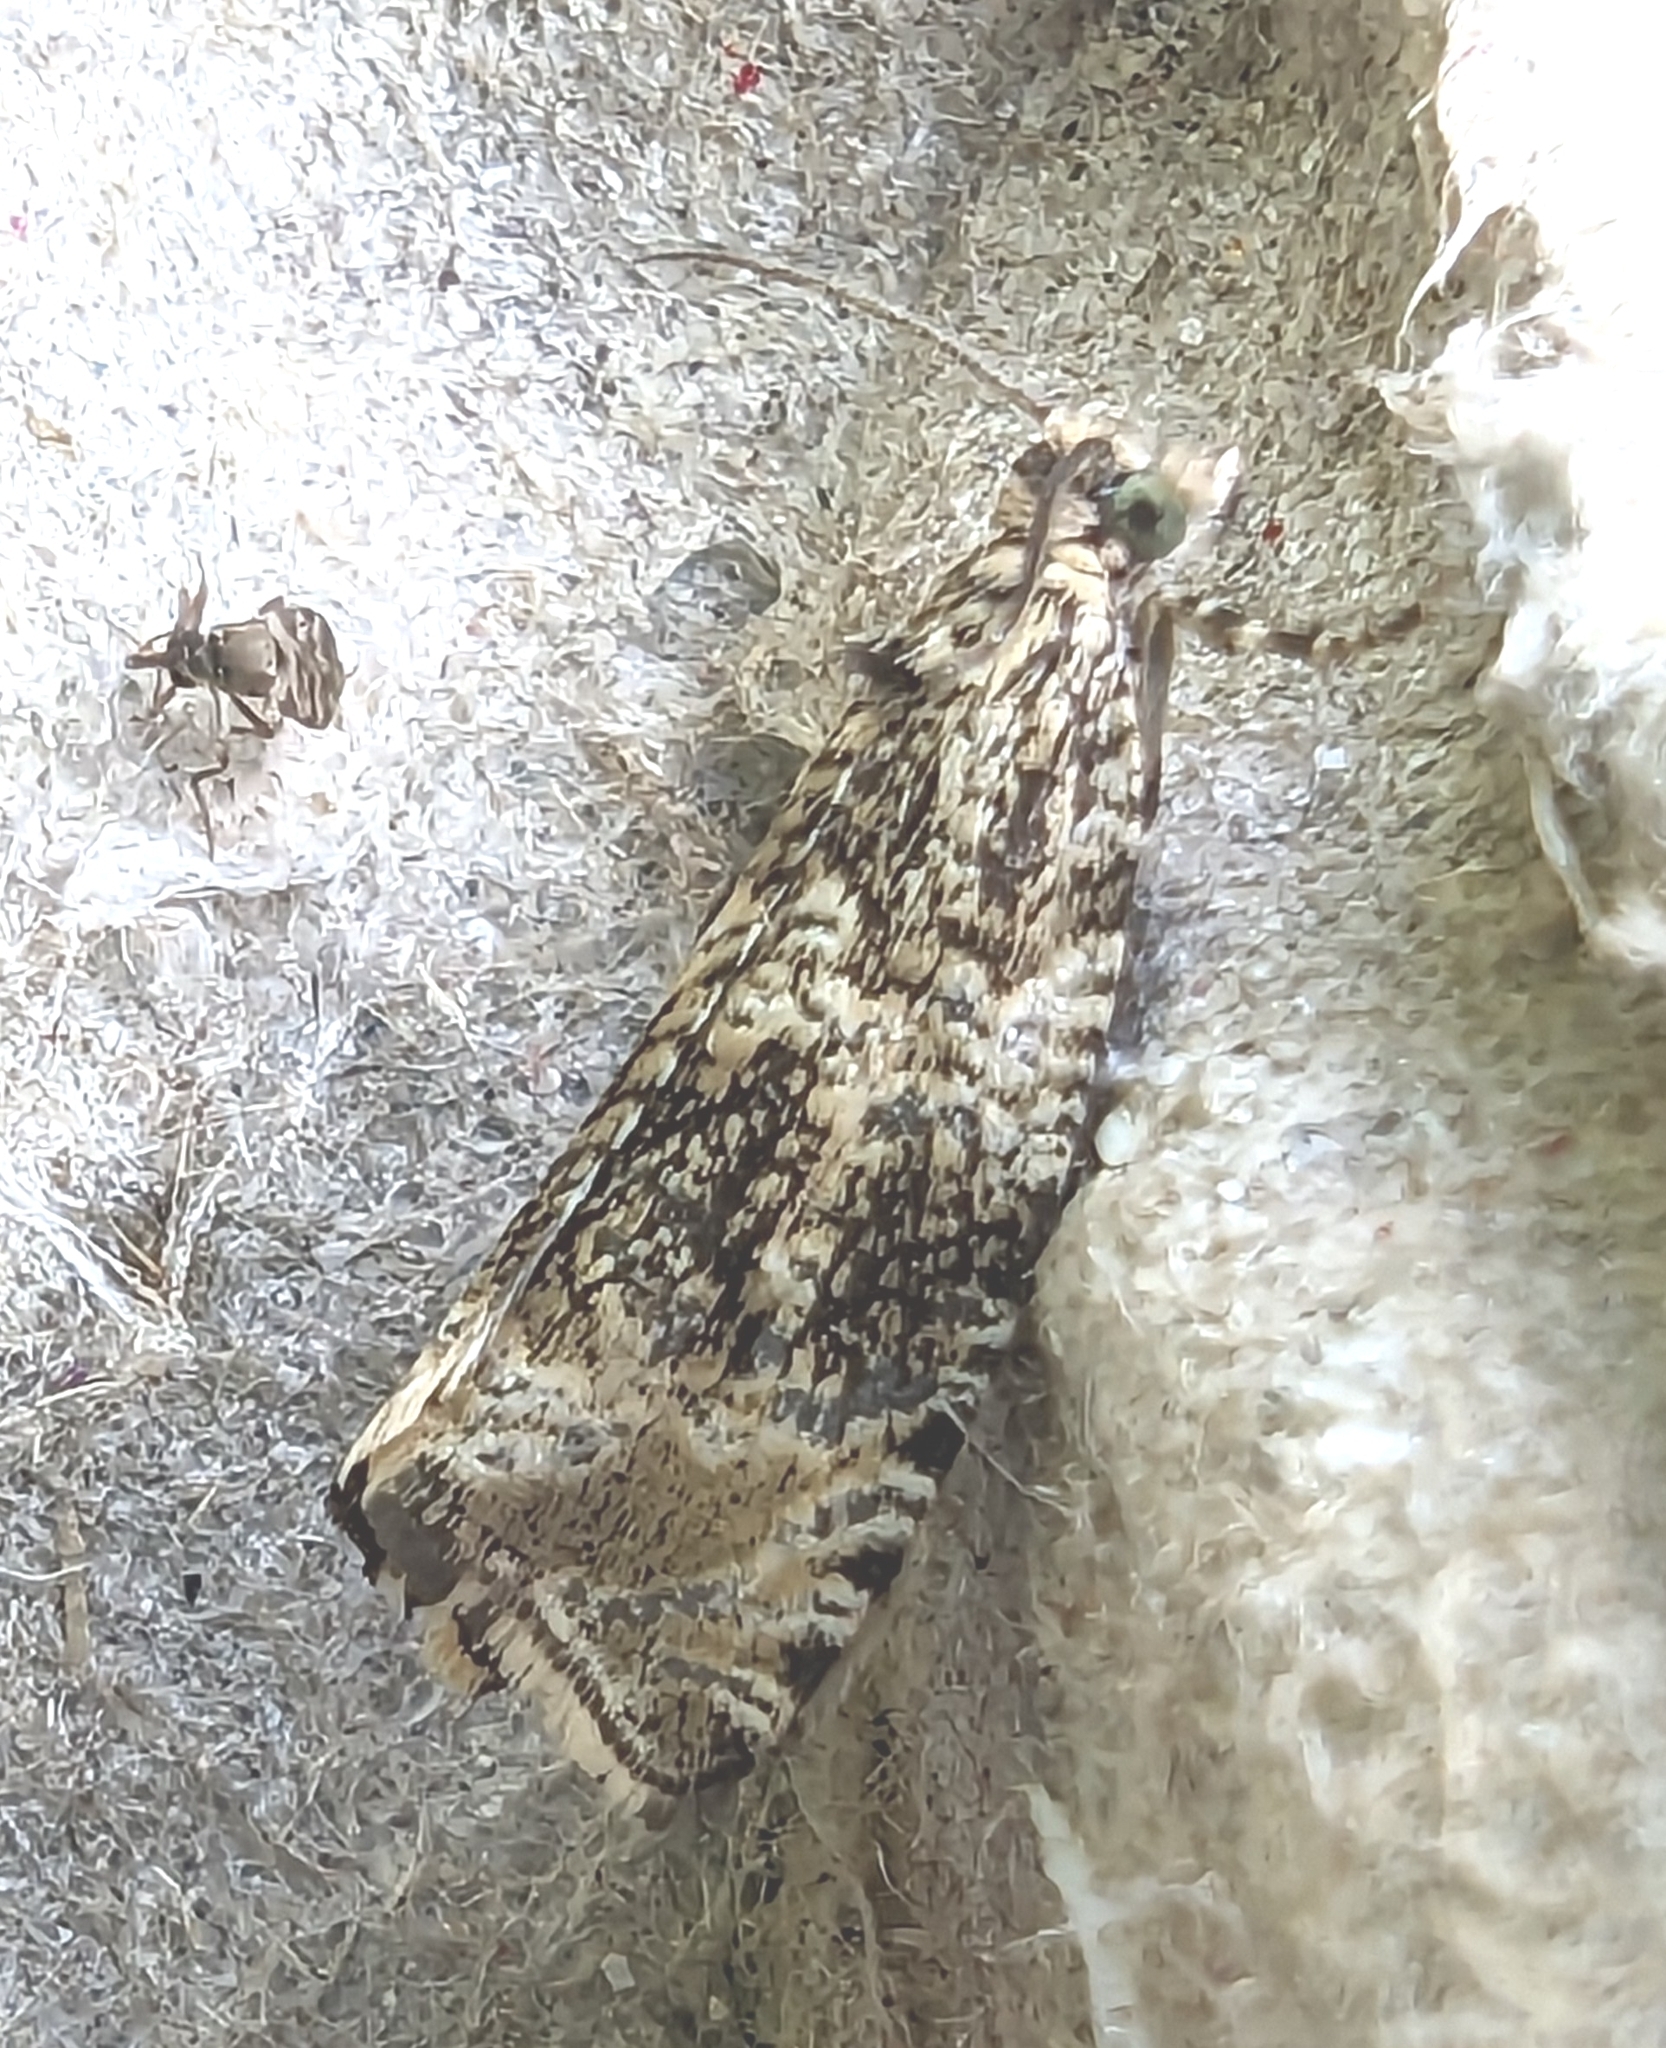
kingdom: Animalia
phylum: Arthropoda
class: Insecta
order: Lepidoptera
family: Tortricidae
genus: Syricoris
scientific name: Syricoris lacunana
